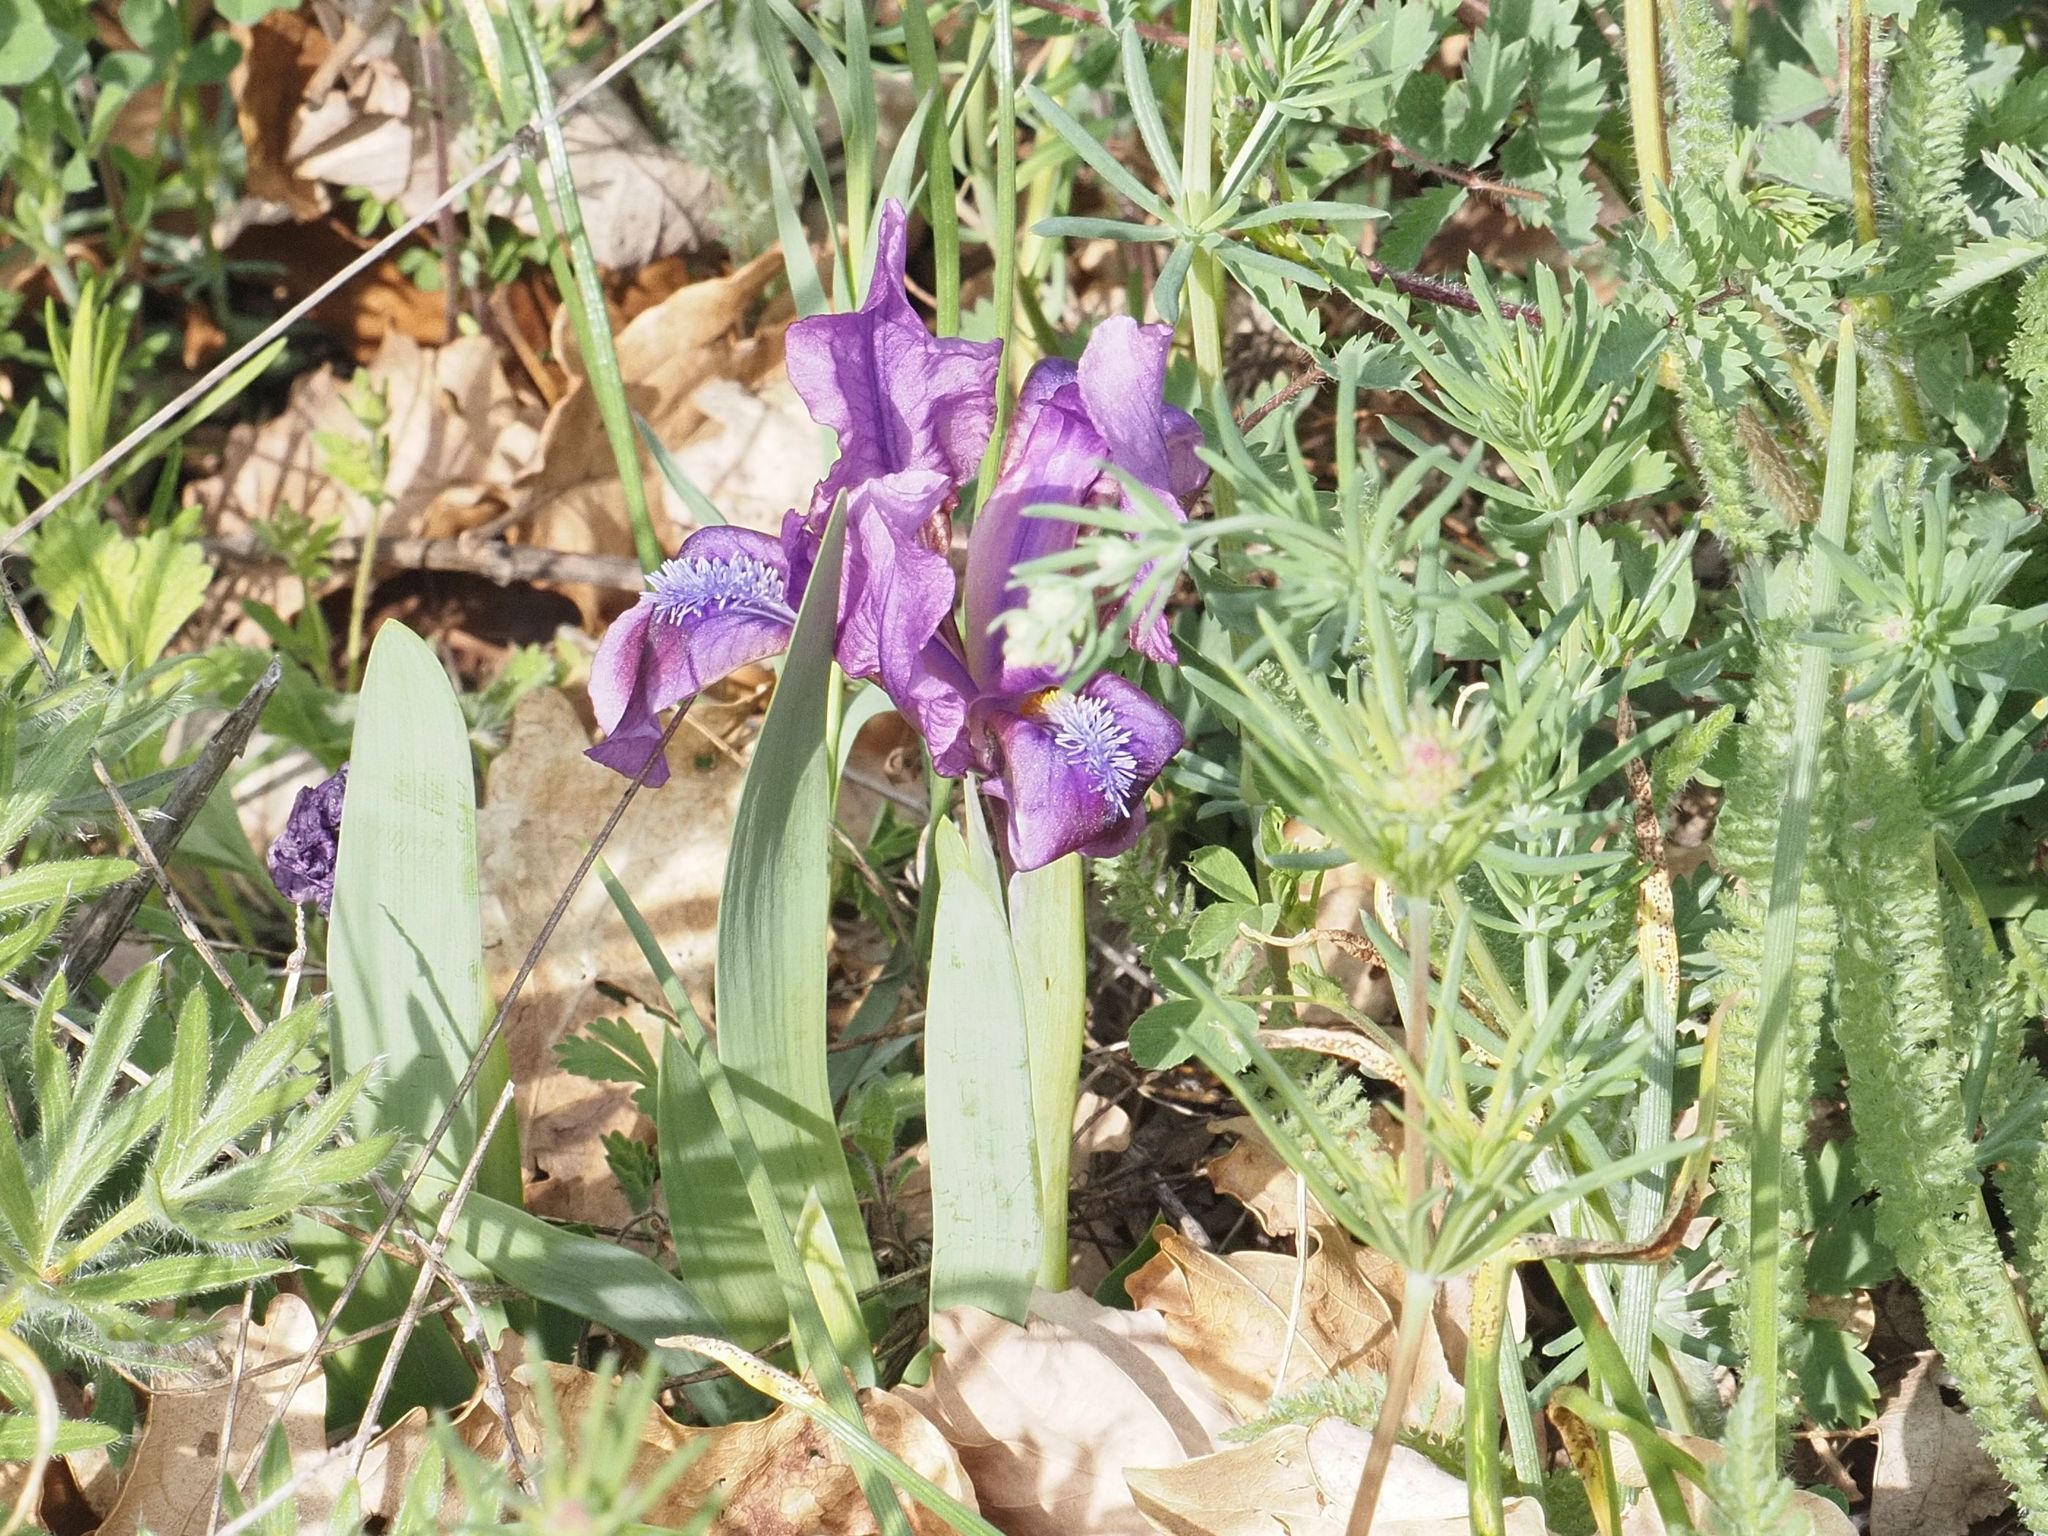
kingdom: Plantae
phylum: Tracheophyta
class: Liliopsida
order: Asparagales
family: Iridaceae
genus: Iris
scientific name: Iris pumila
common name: Dwarf iris
